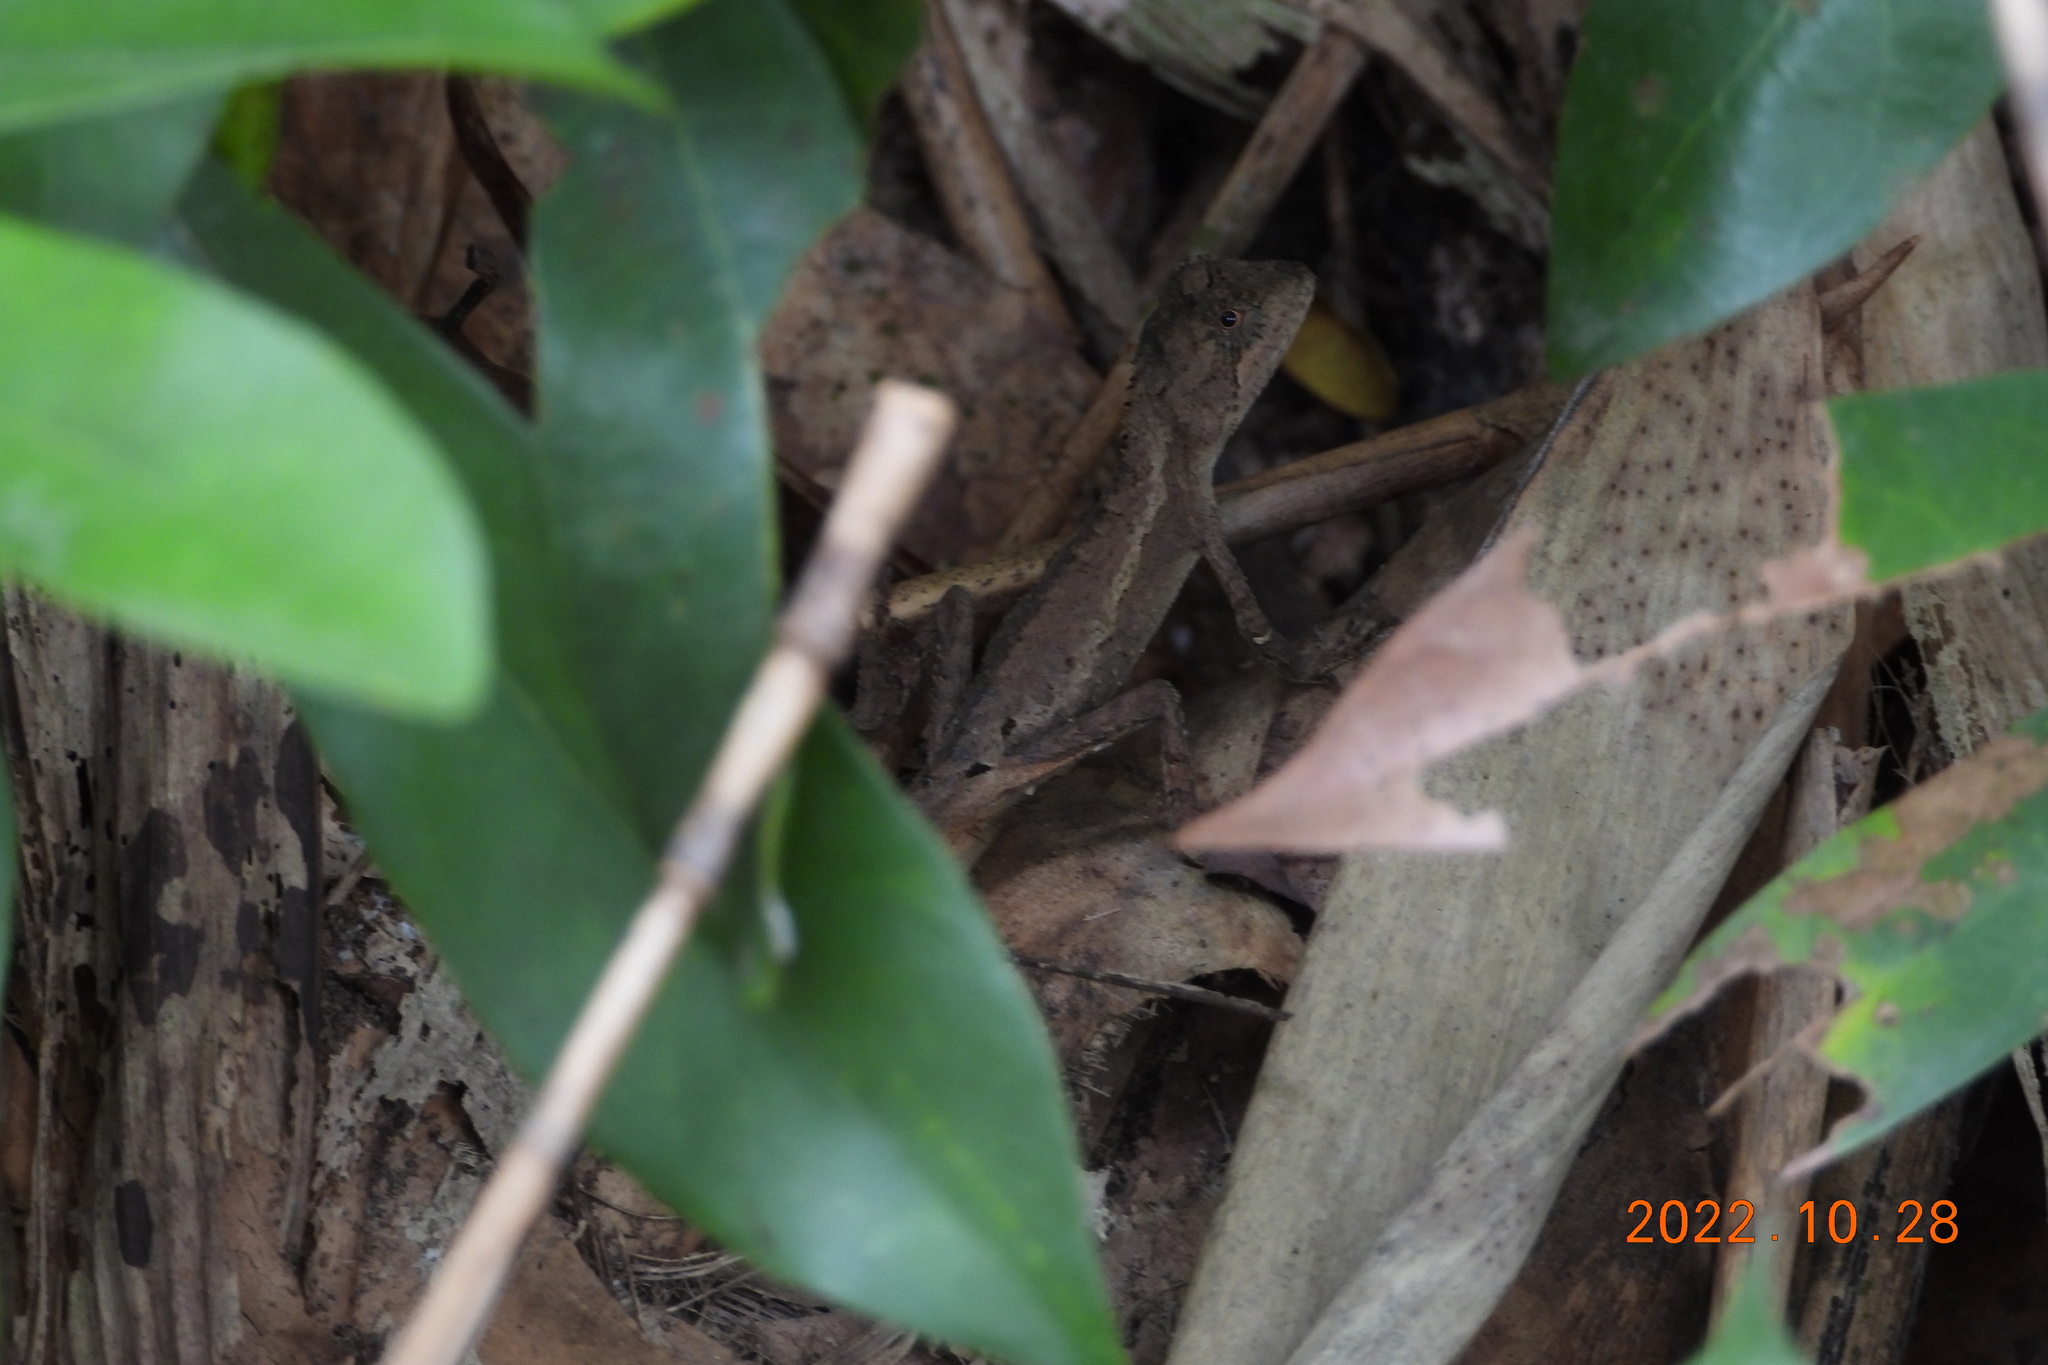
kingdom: Animalia
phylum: Chordata
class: Squamata
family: Agamidae
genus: Diploderma
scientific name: Diploderma swinhonis
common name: Taiwan japalure
